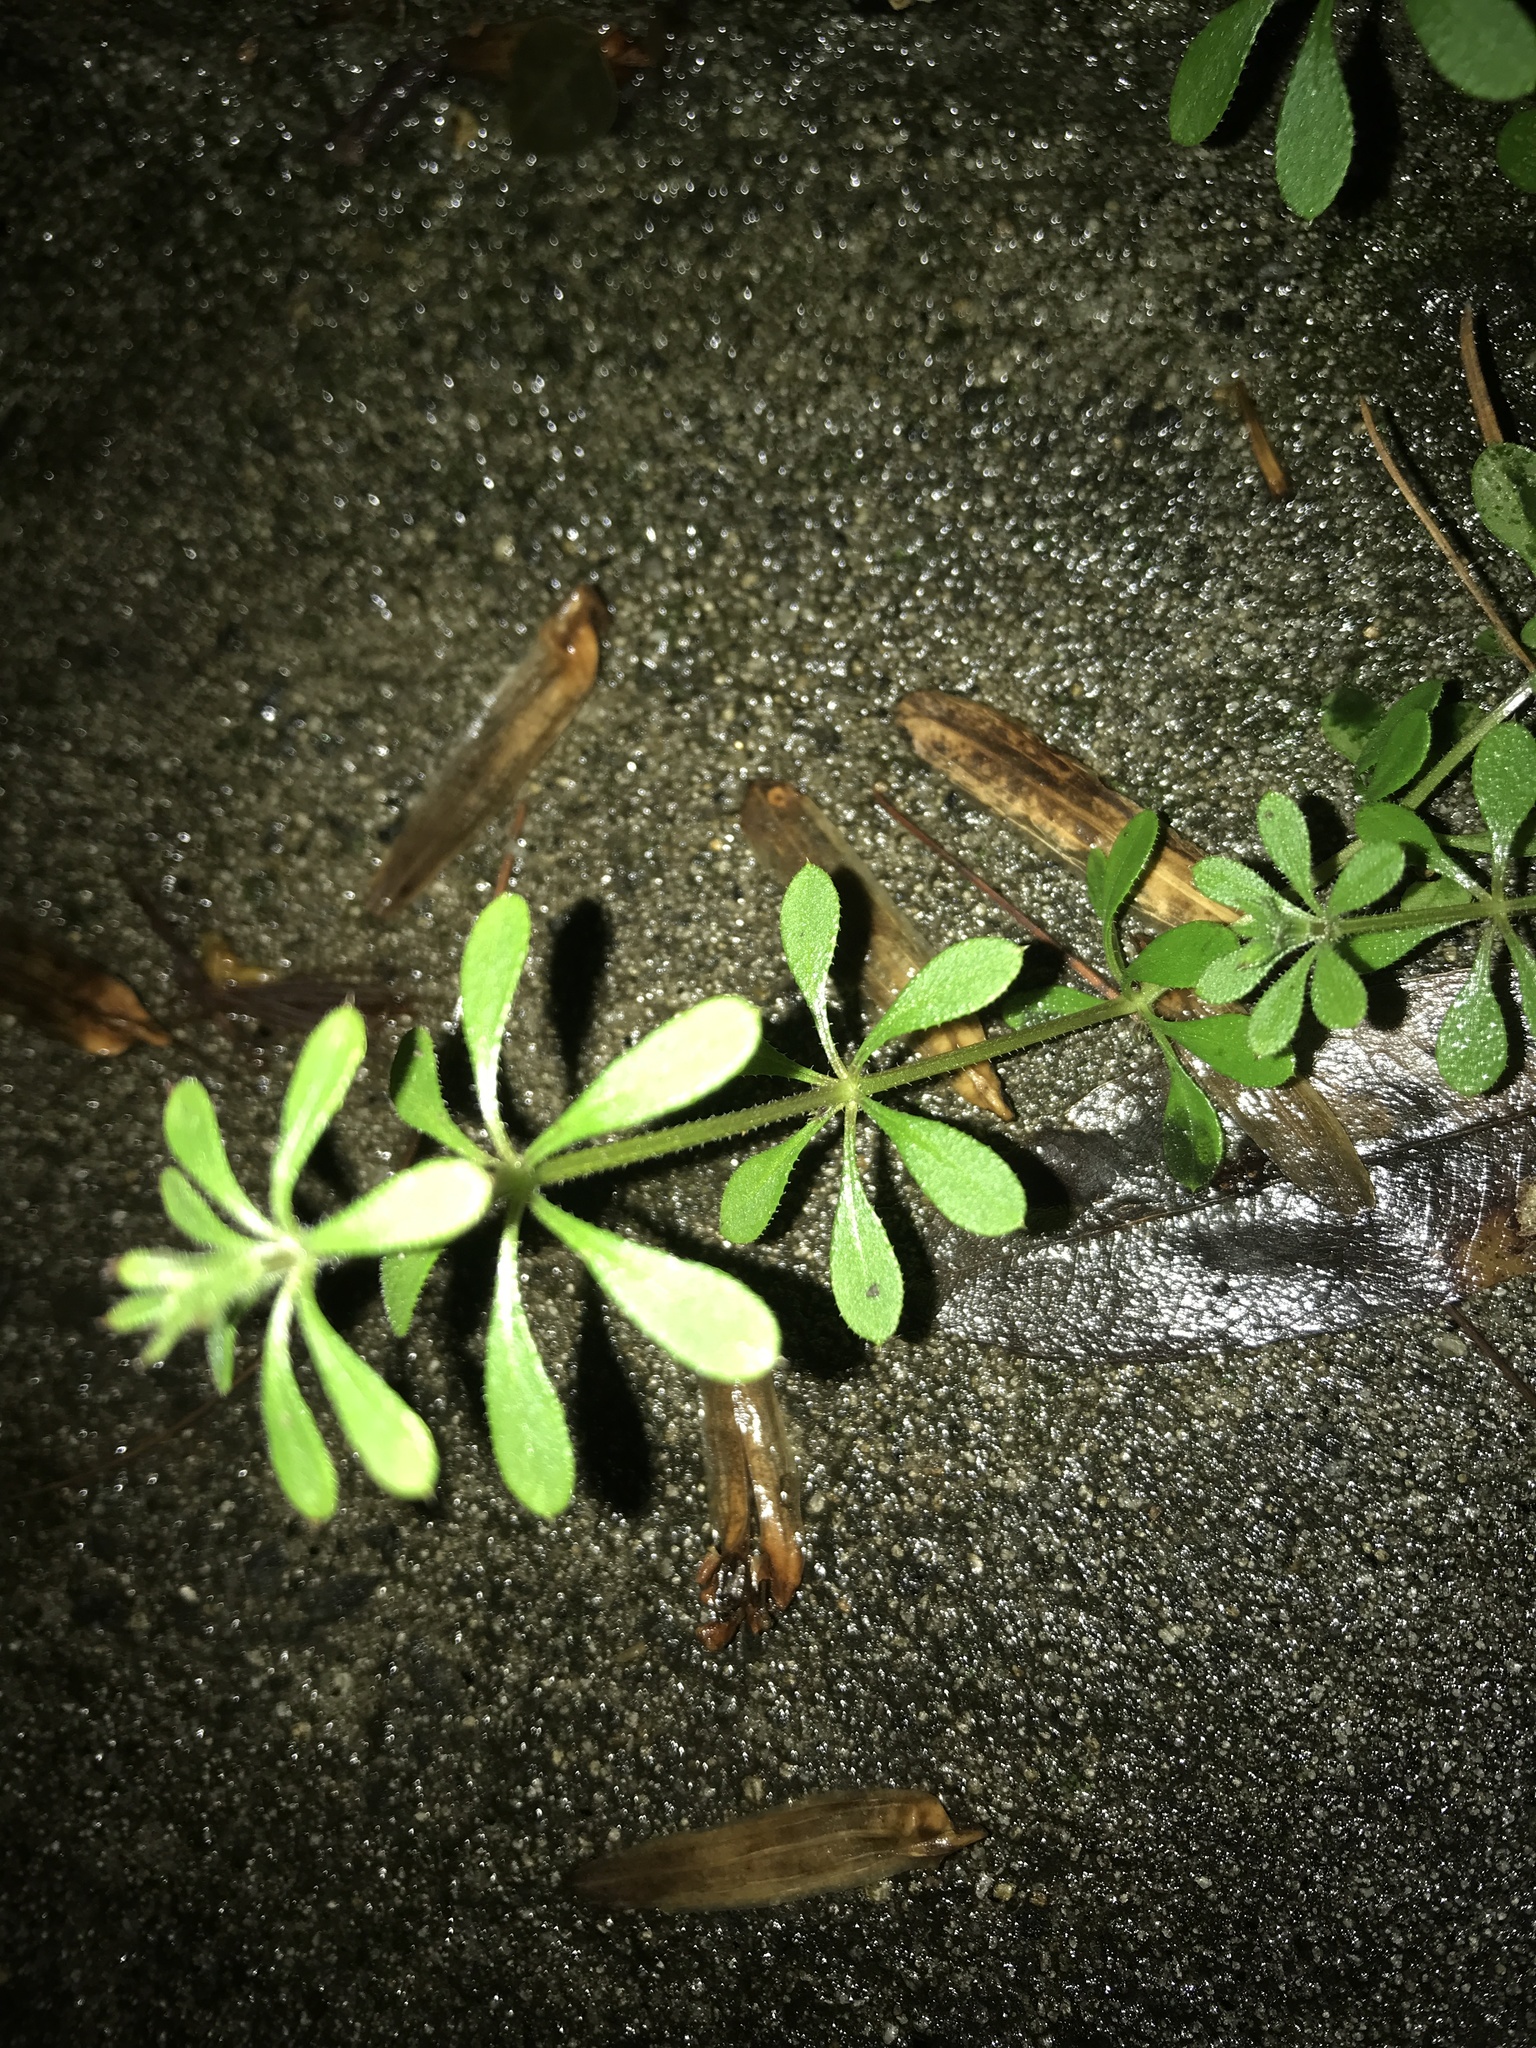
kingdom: Plantae
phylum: Tracheophyta
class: Magnoliopsida
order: Gentianales
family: Rubiaceae
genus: Galium
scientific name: Galium aparine
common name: Cleavers
